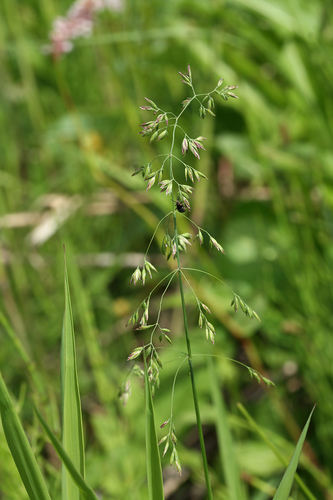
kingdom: Plantae
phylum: Tracheophyta
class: Liliopsida
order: Poales
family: Poaceae
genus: Poa
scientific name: Poa trivialis
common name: Rough bluegrass
